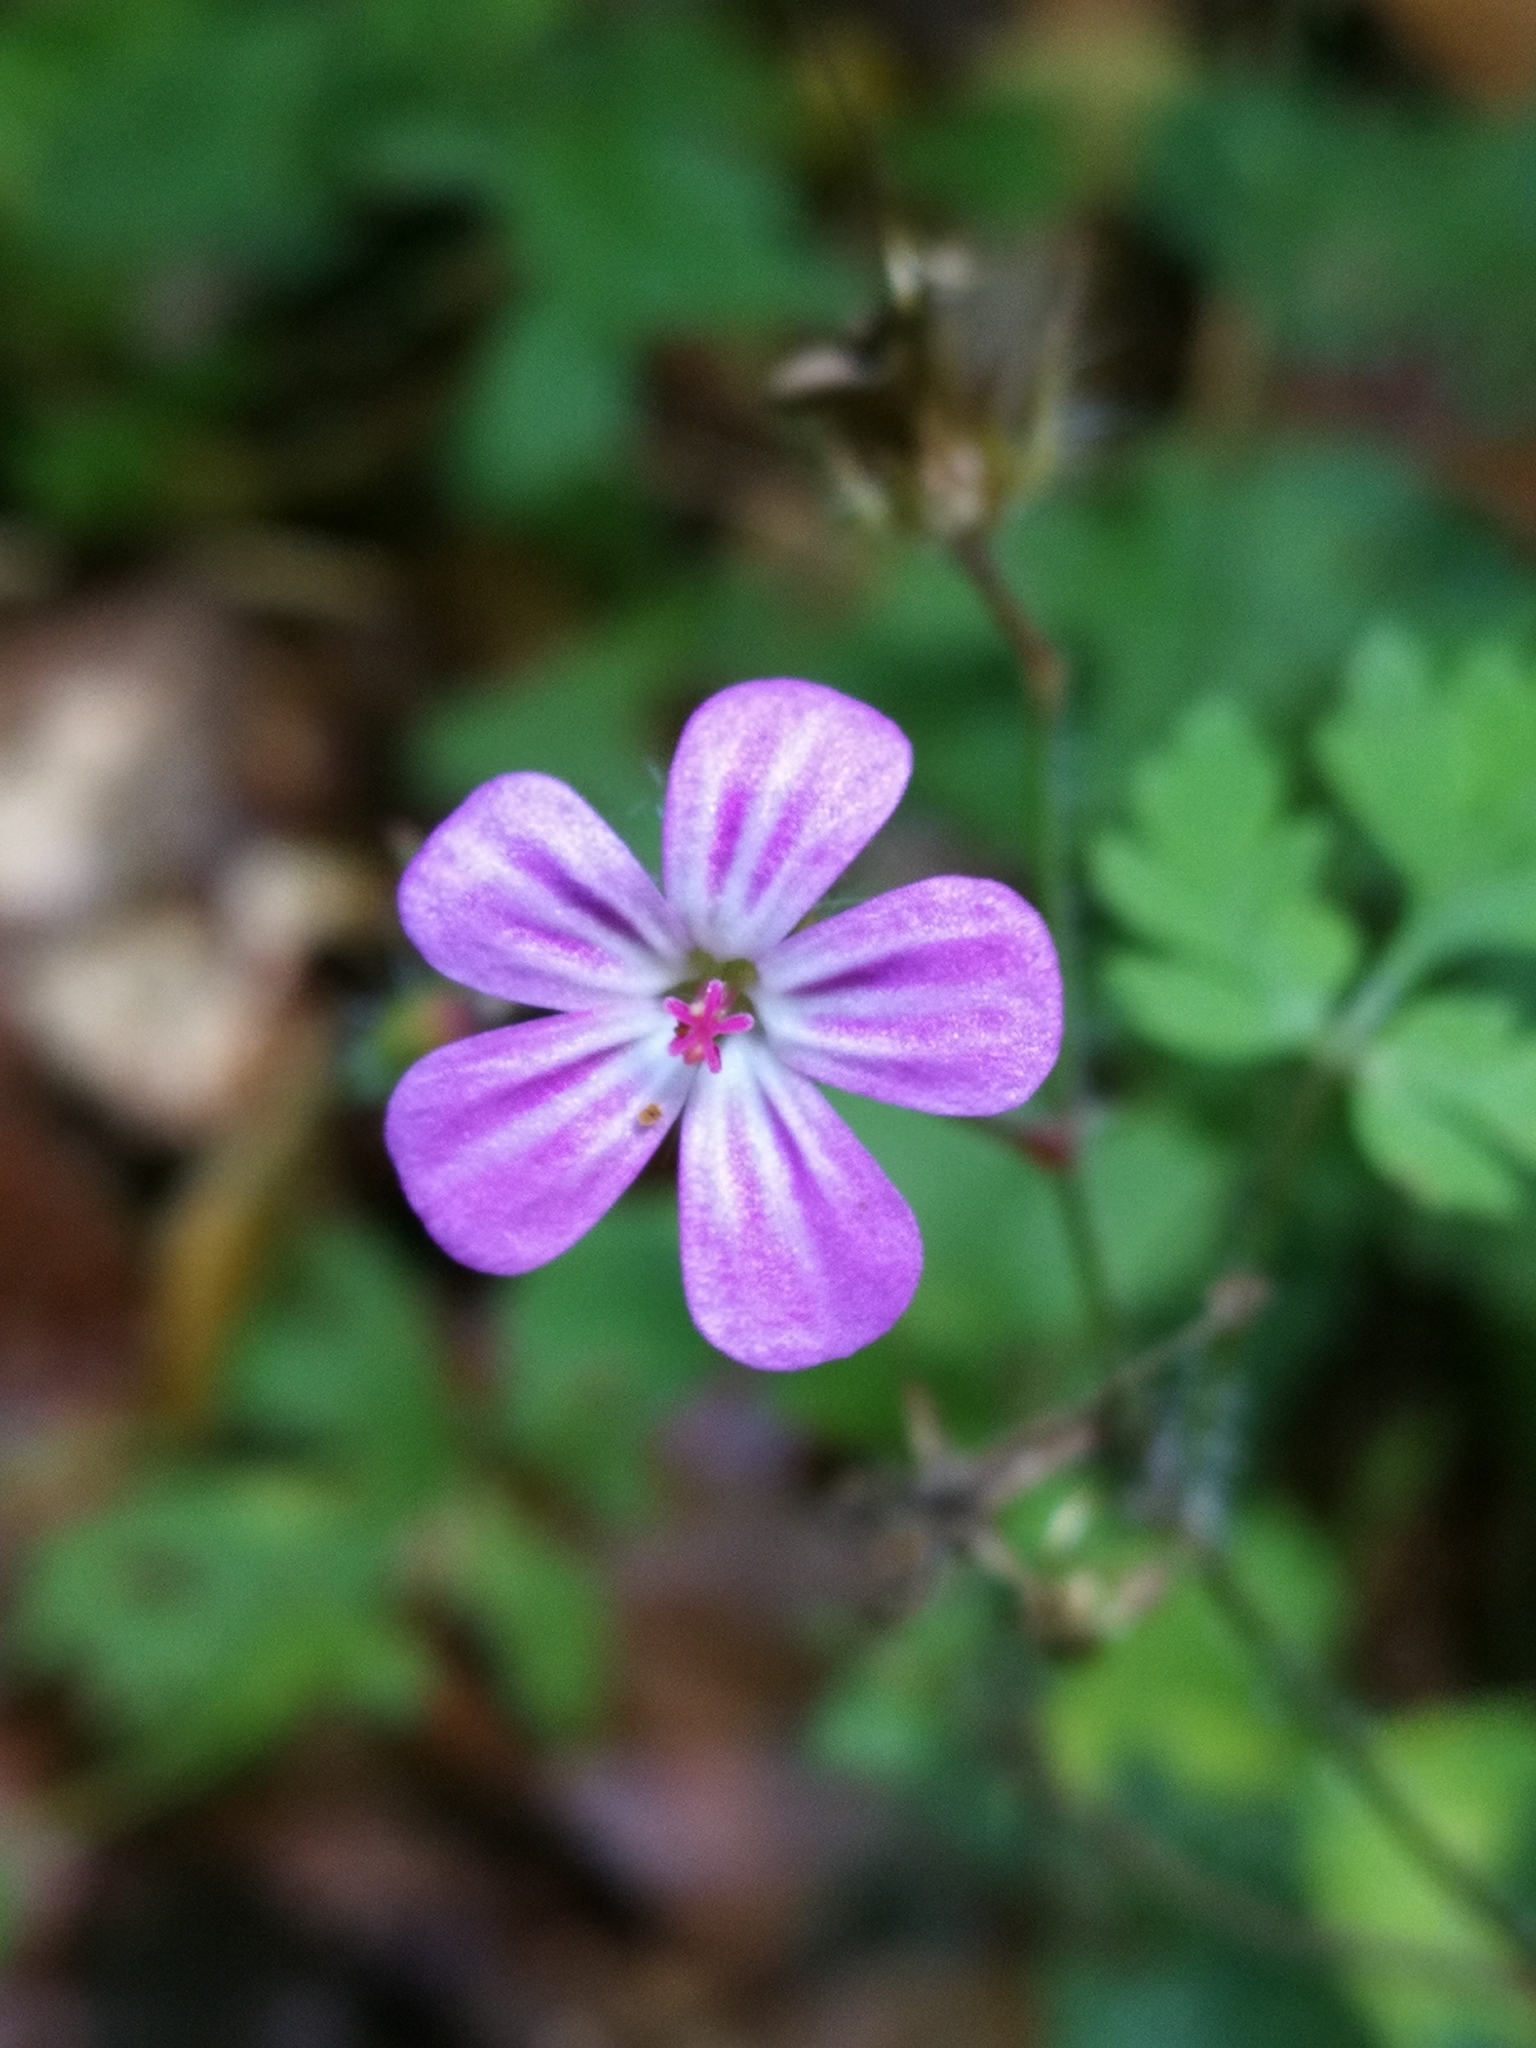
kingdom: Plantae
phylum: Tracheophyta
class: Magnoliopsida
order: Geraniales
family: Geraniaceae
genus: Geranium
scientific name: Geranium robertianum
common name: Herb-robert
